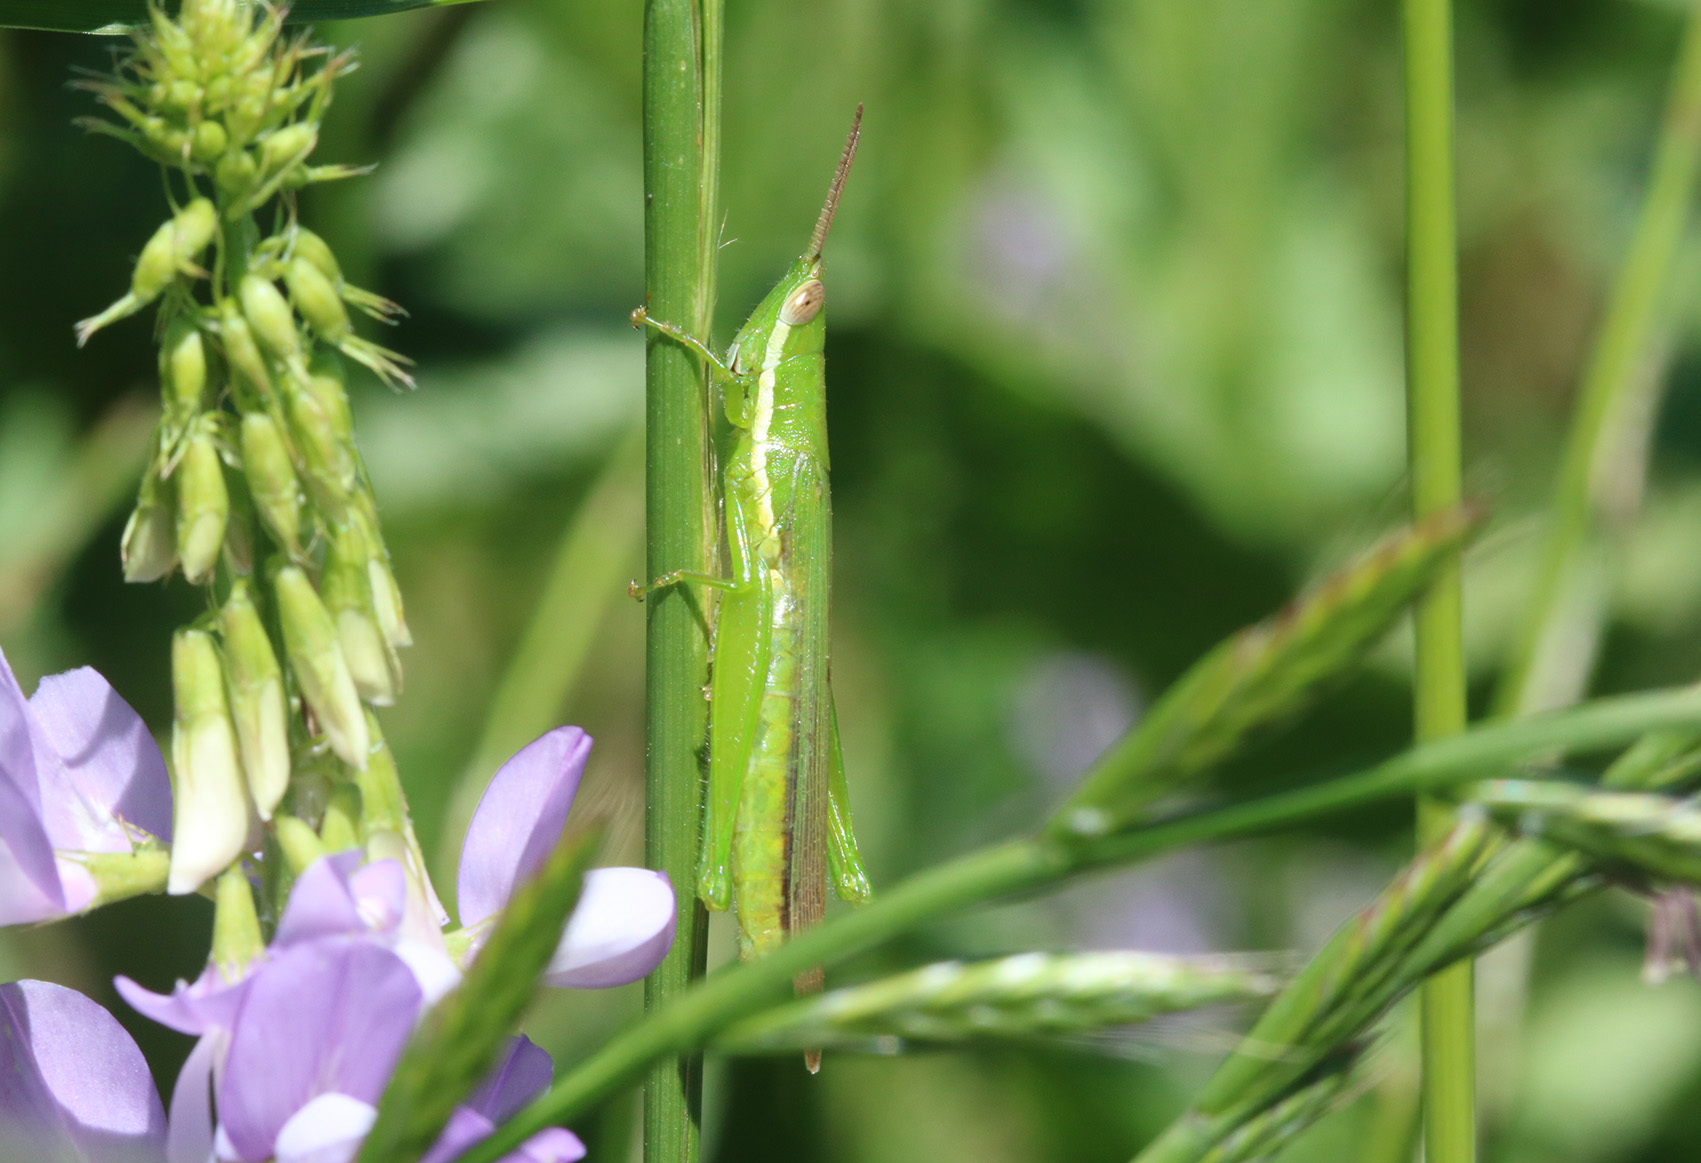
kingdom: Animalia
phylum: Arthropoda
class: Insecta
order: Orthoptera
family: Acrididae
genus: Tucayaca
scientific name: Tucayaca gracilis
